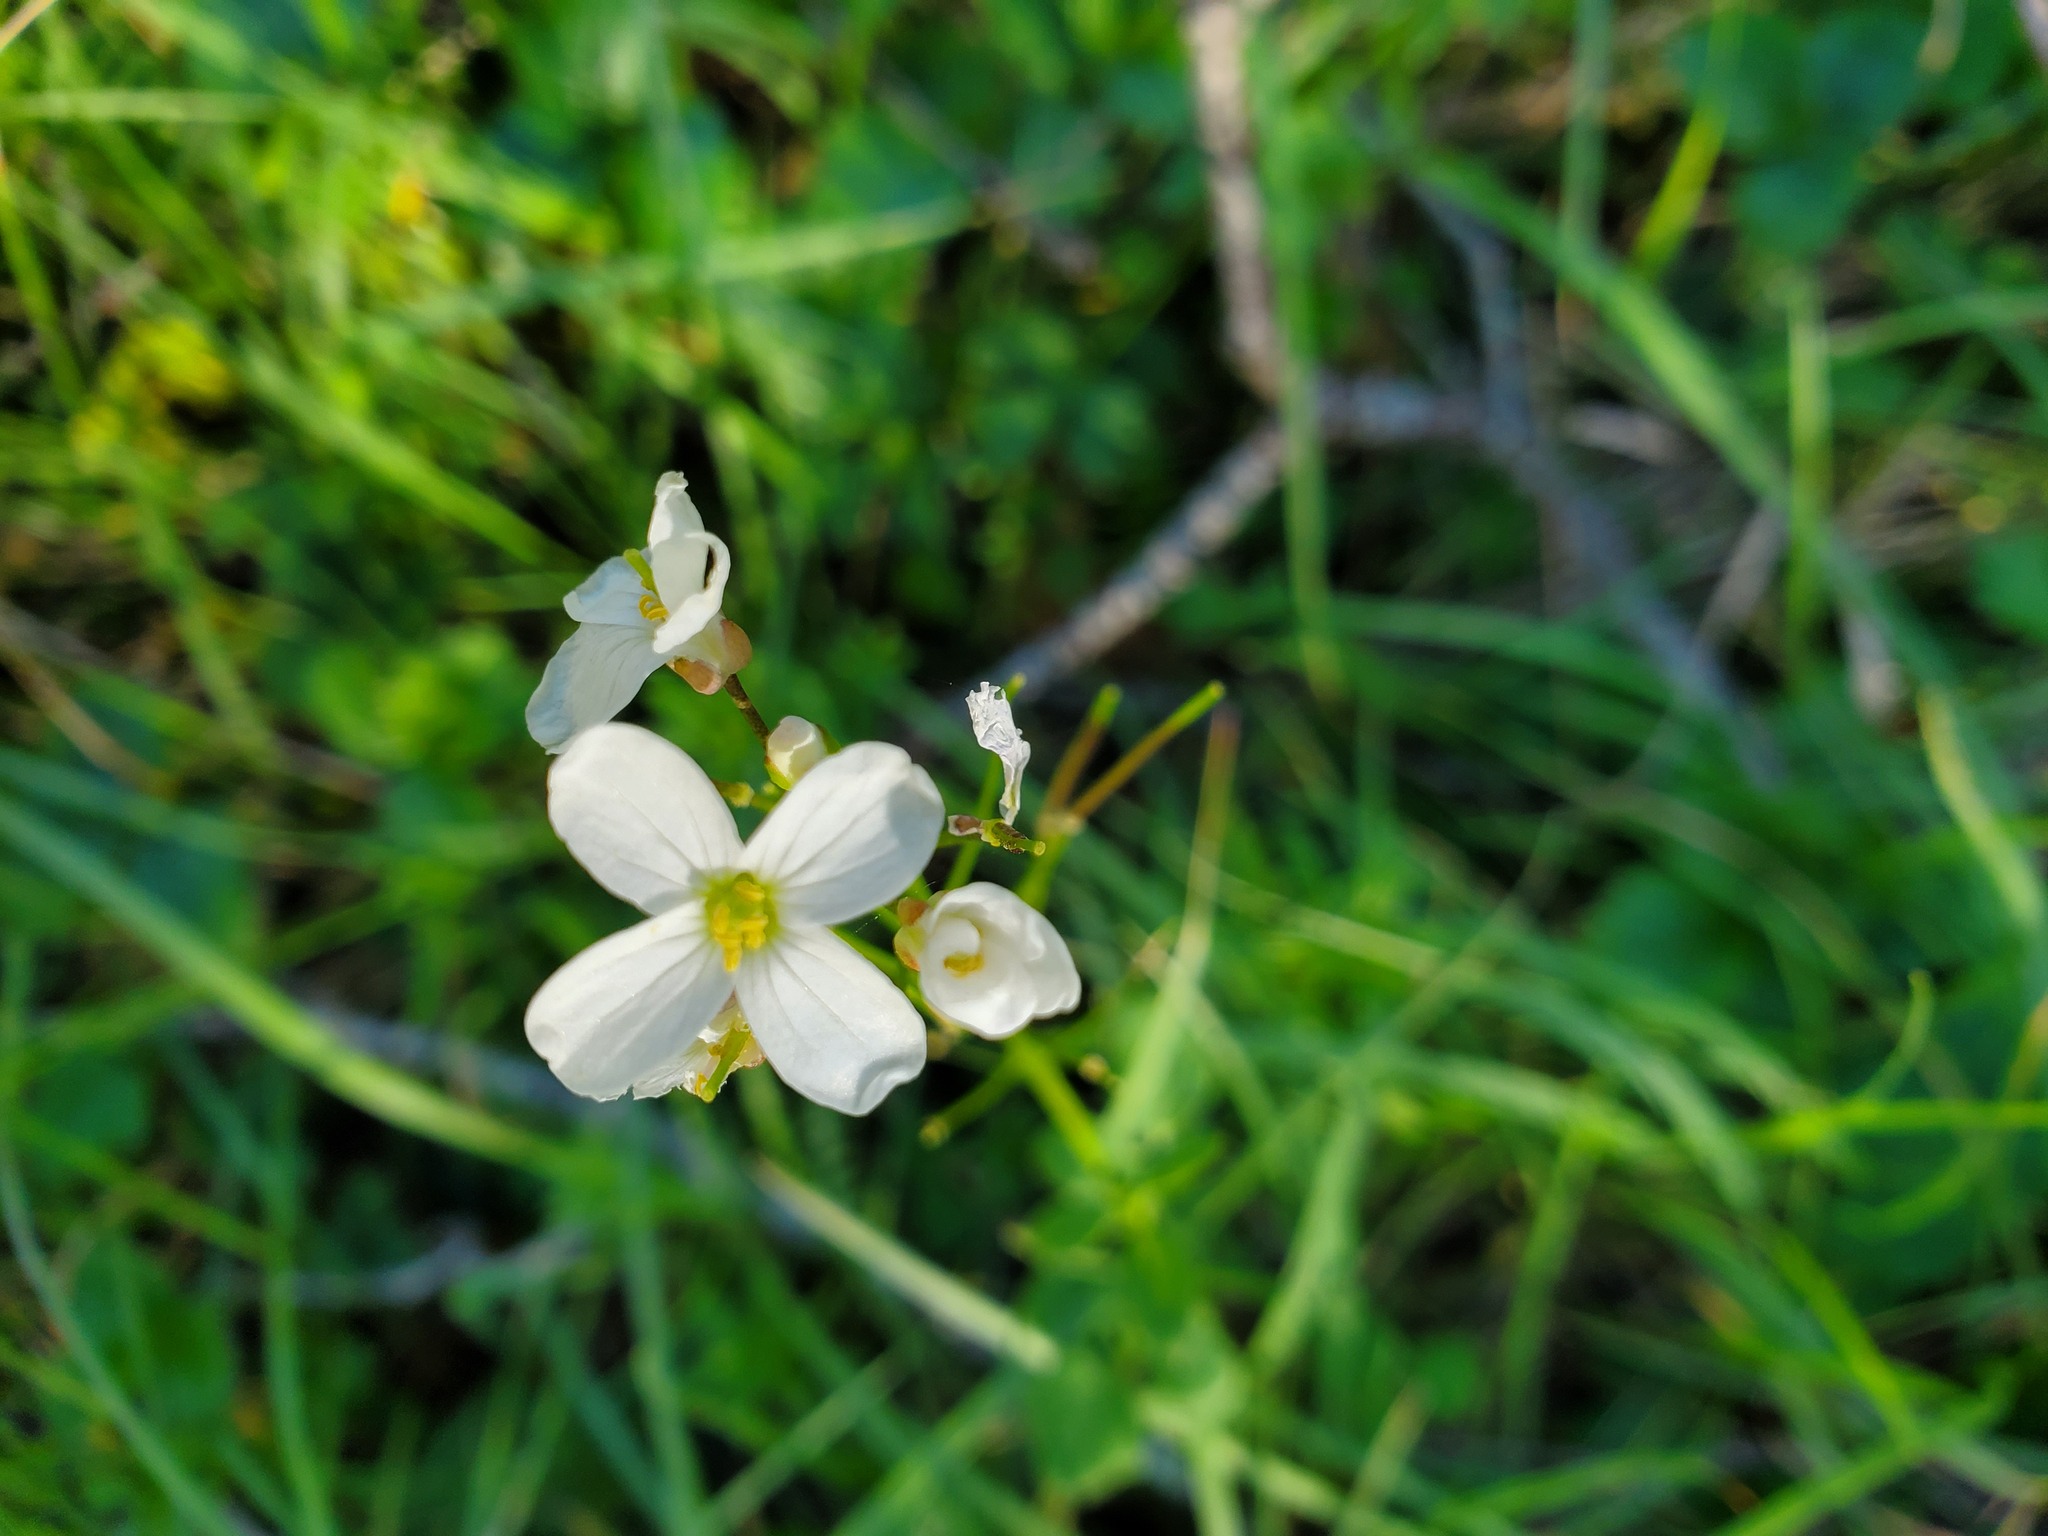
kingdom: Plantae
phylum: Tracheophyta
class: Magnoliopsida
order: Brassicales
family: Brassicaceae
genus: Cardamine
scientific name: Cardamine californica
